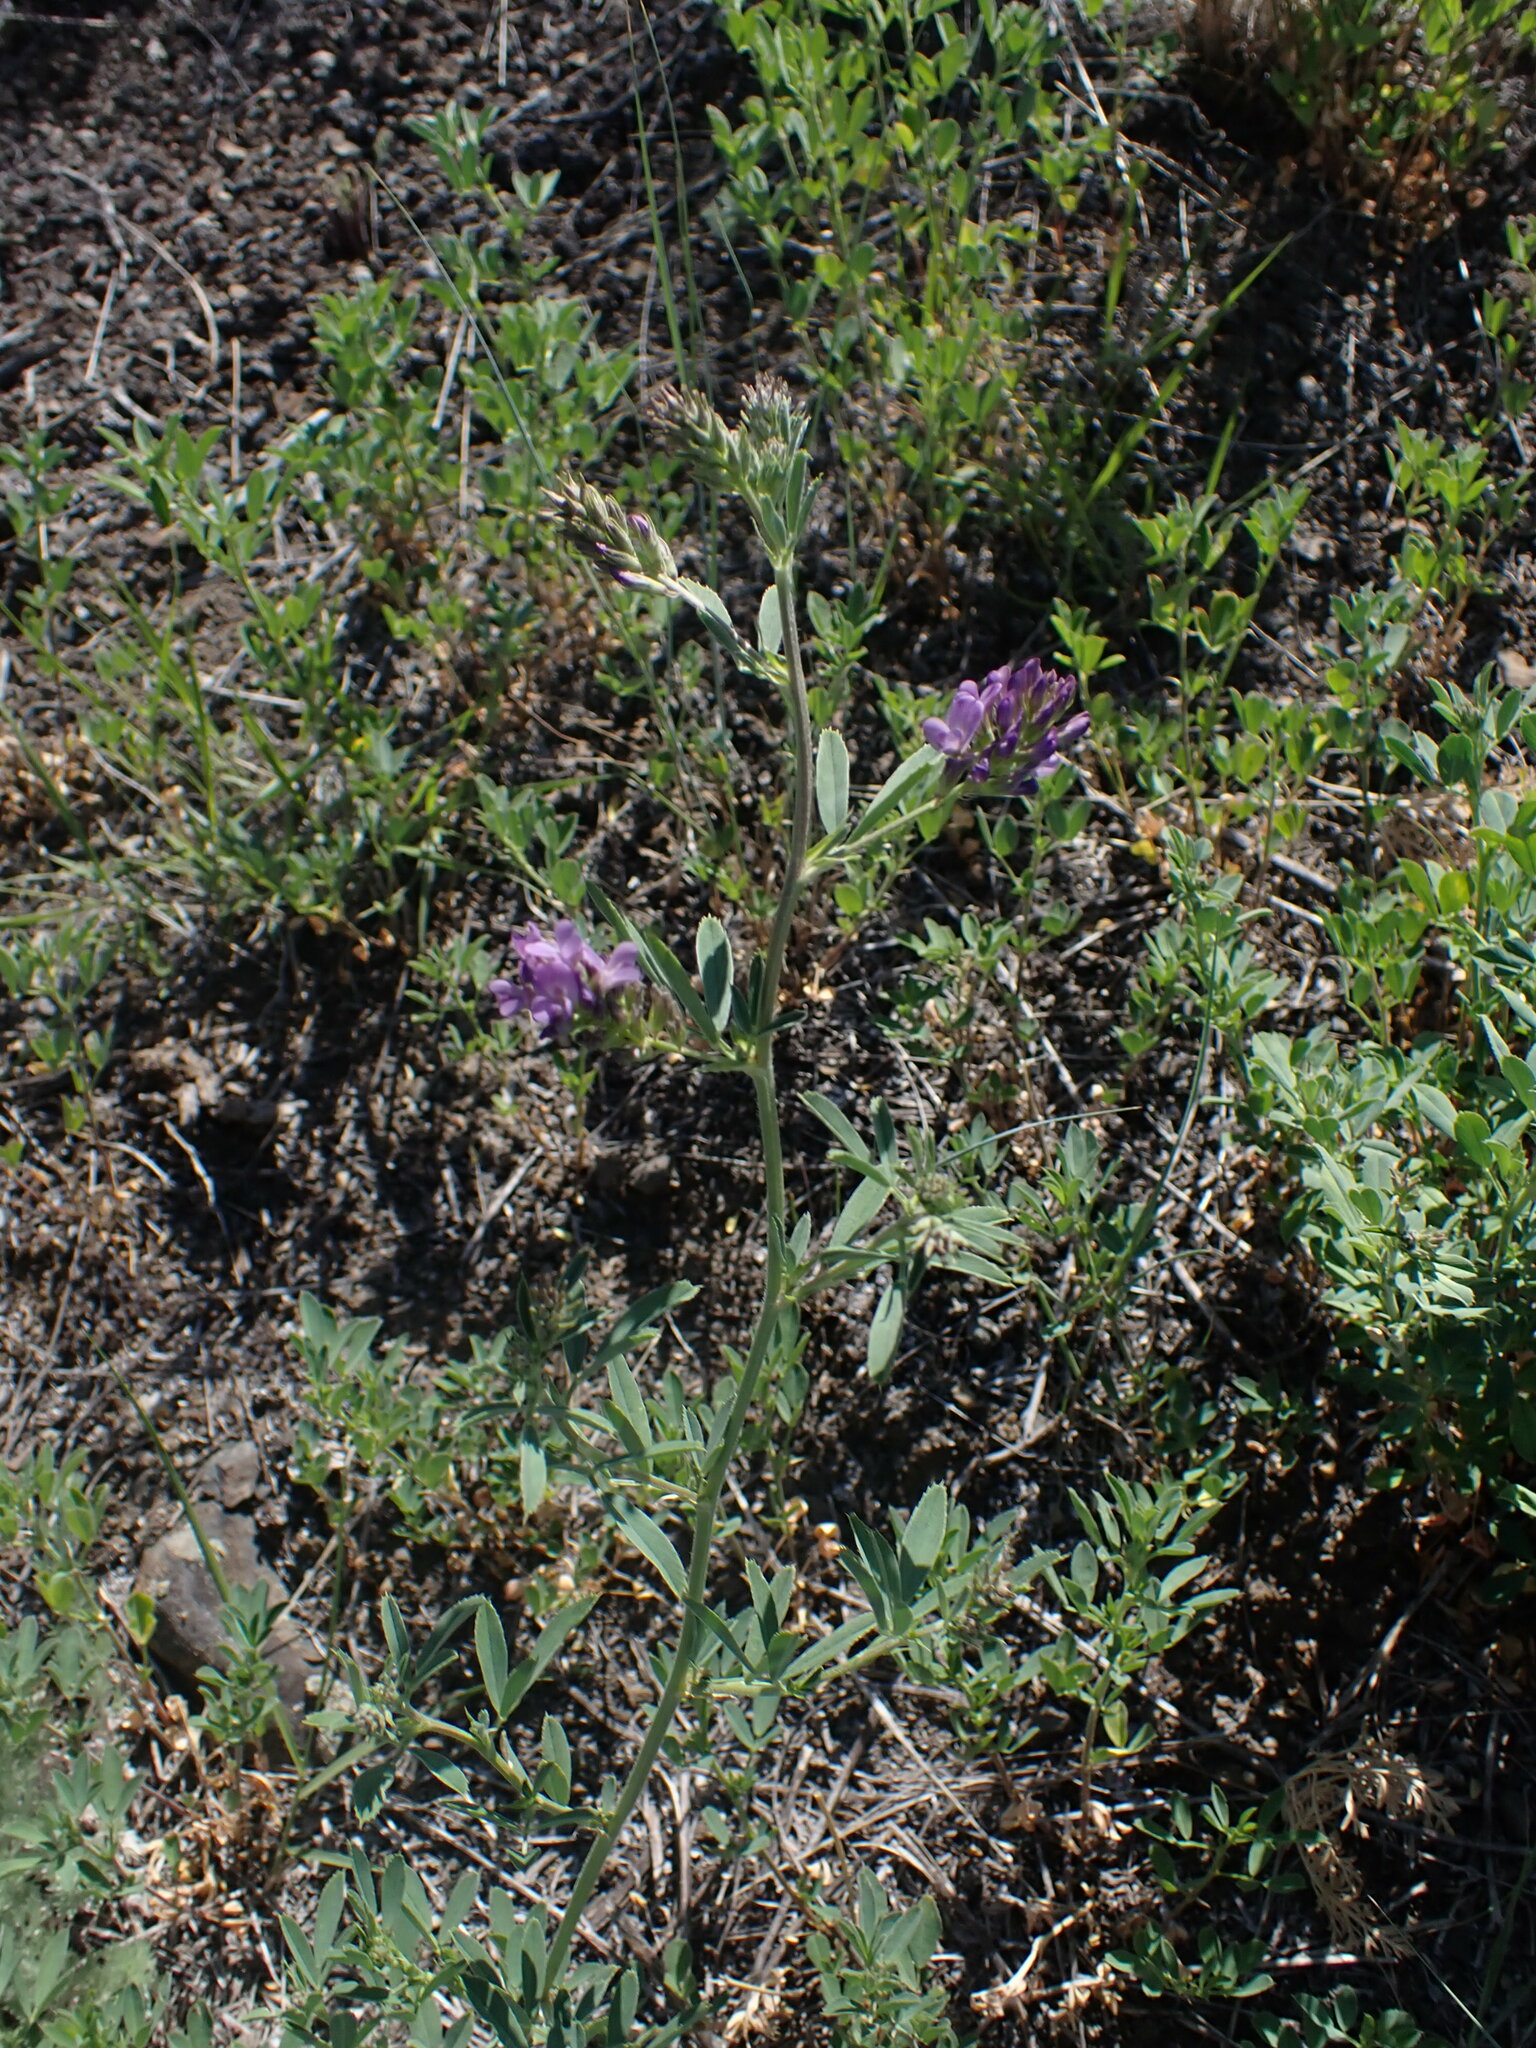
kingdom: Plantae
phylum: Tracheophyta
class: Magnoliopsida
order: Fabales
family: Fabaceae
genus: Medicago
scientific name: Medicago sativa
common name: Alfalfa
